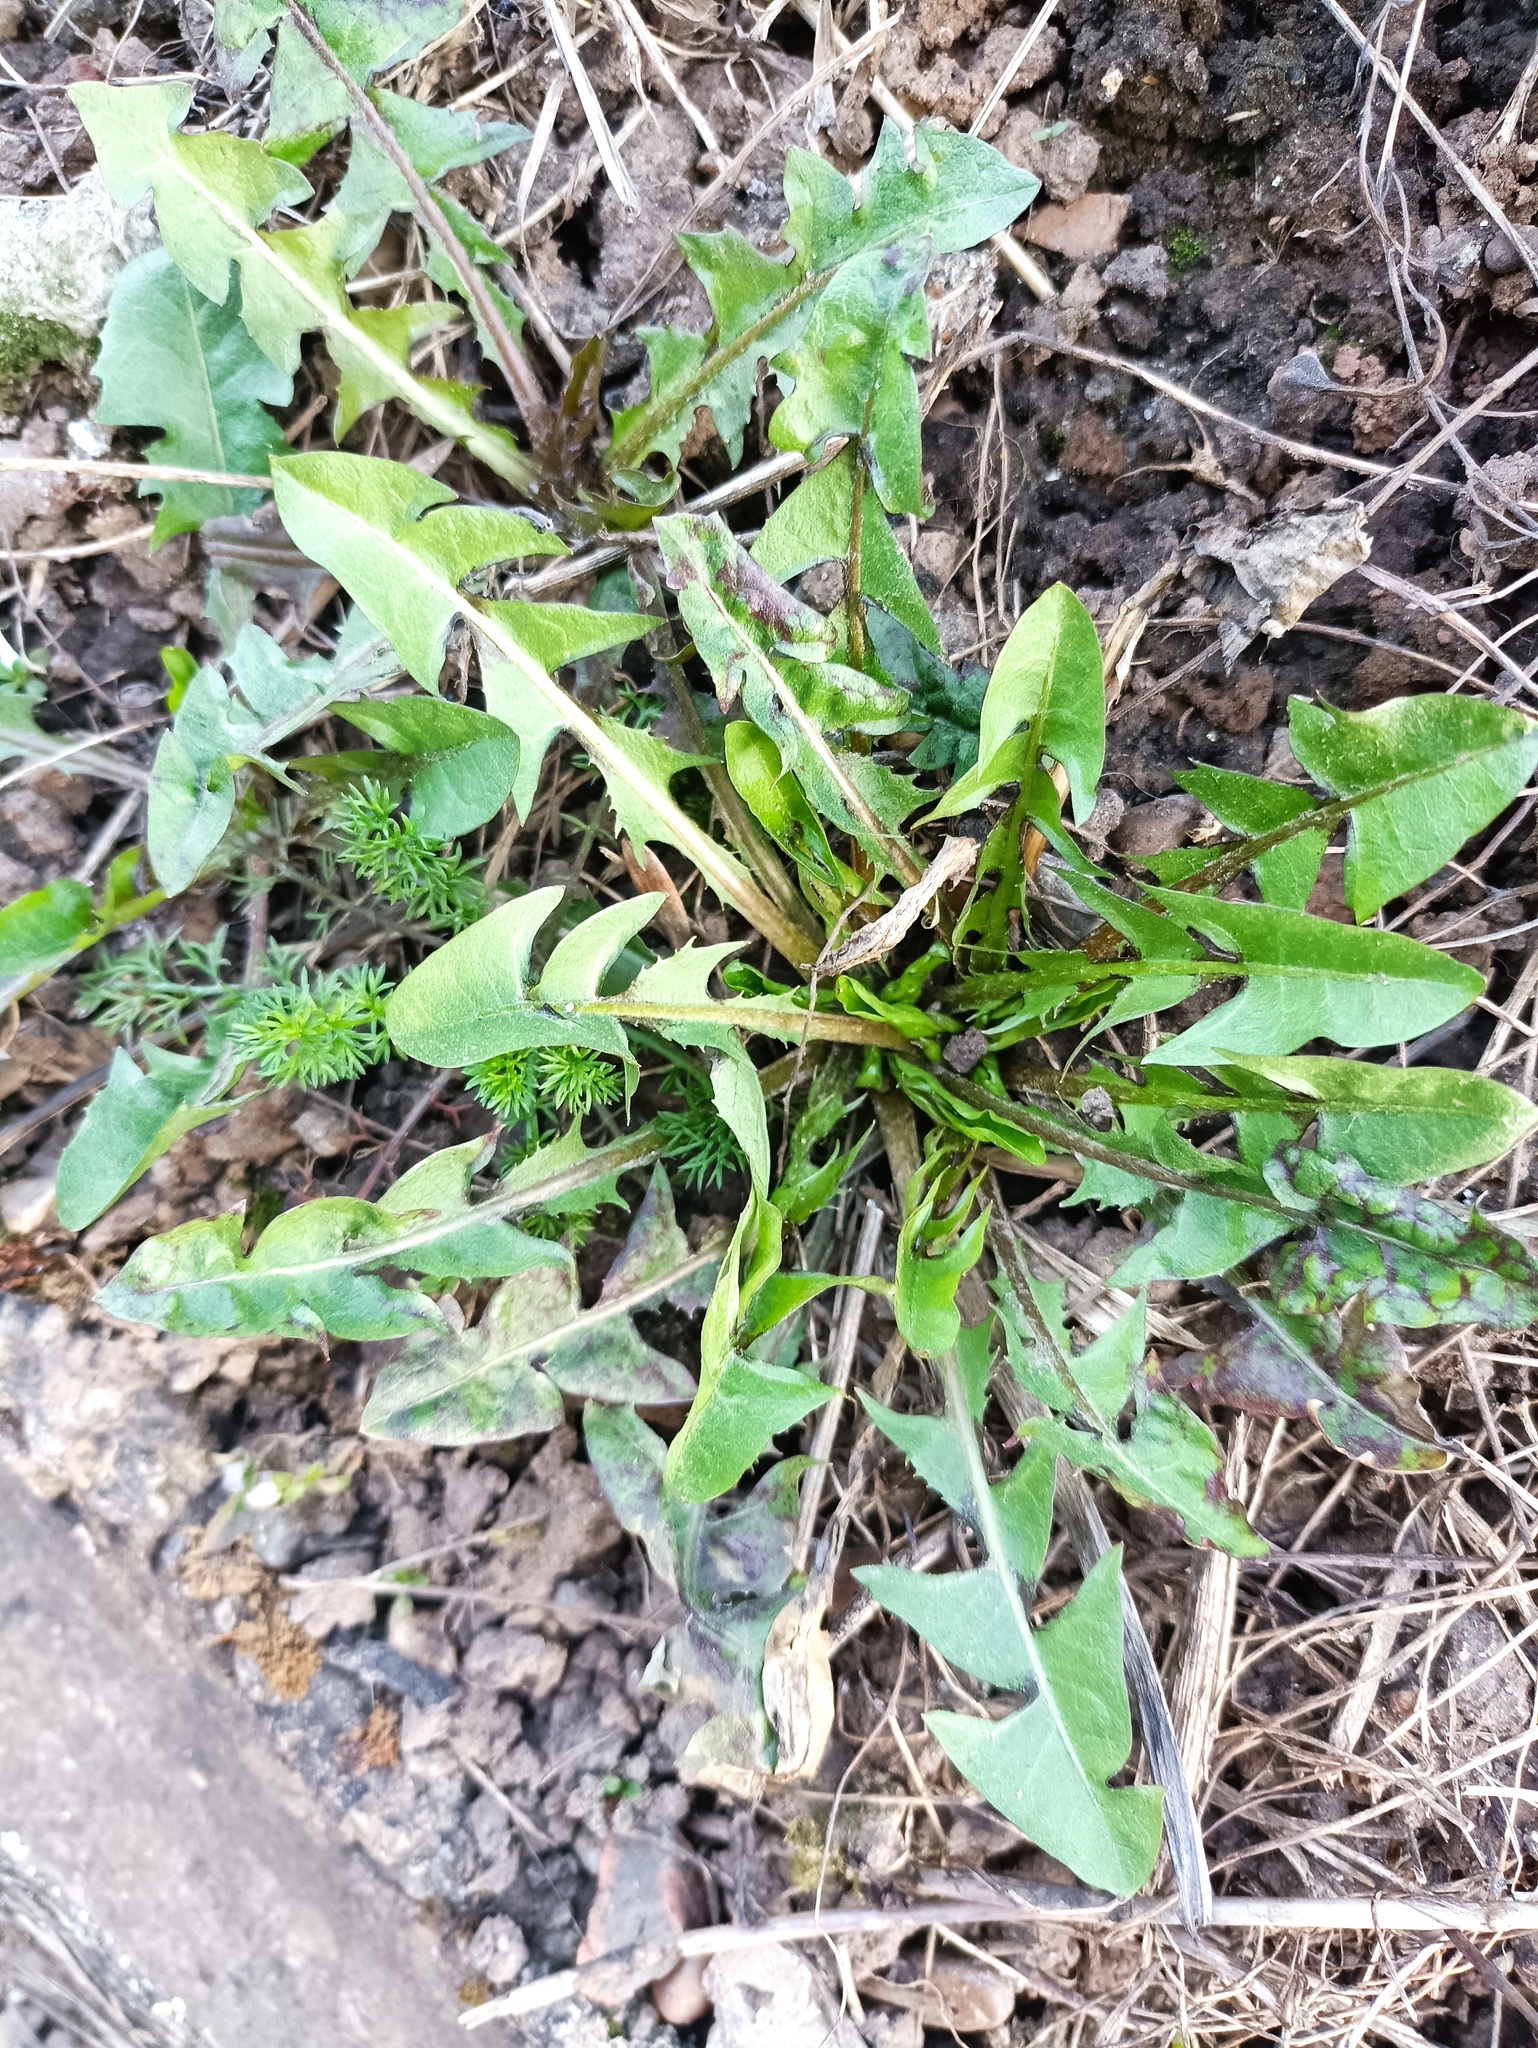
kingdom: Plantae
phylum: Tracheophyta
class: Magnoliopsida
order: Asterales
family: Asteraceae
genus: Taraxacum
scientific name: Taraxacum officinale
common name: Common dandelion
